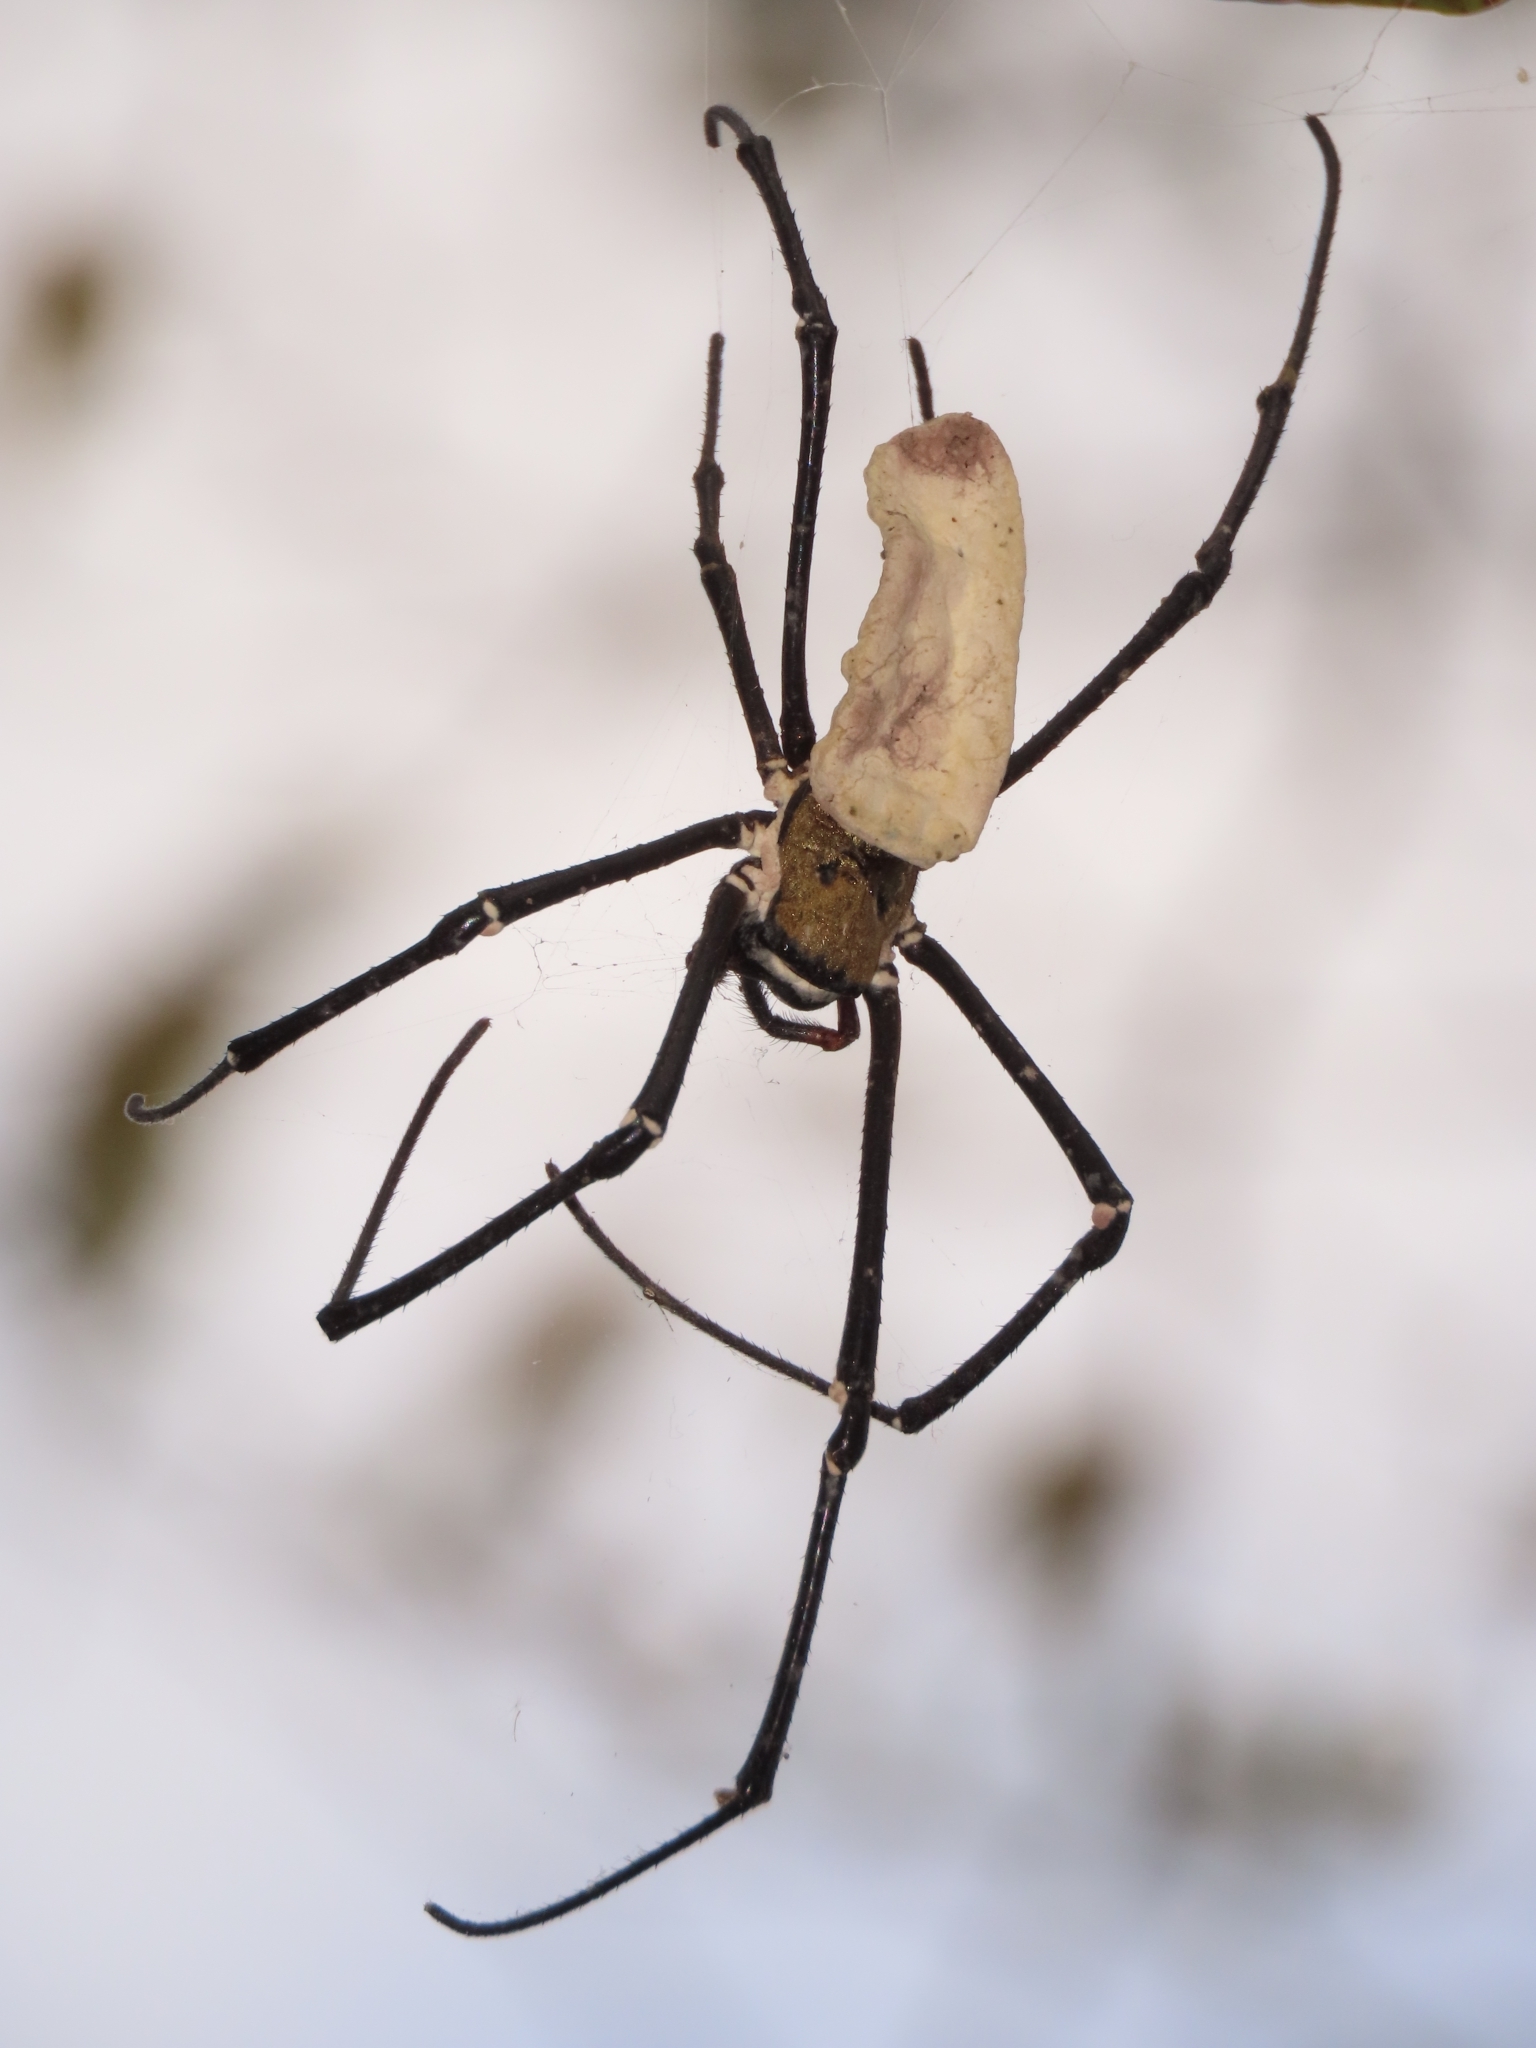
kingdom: Animalia
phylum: Arthropoda
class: Arachnida
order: Araneae
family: Araneidae
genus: Nephila
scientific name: Nephila pilipes
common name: Giant golden orb weaver
